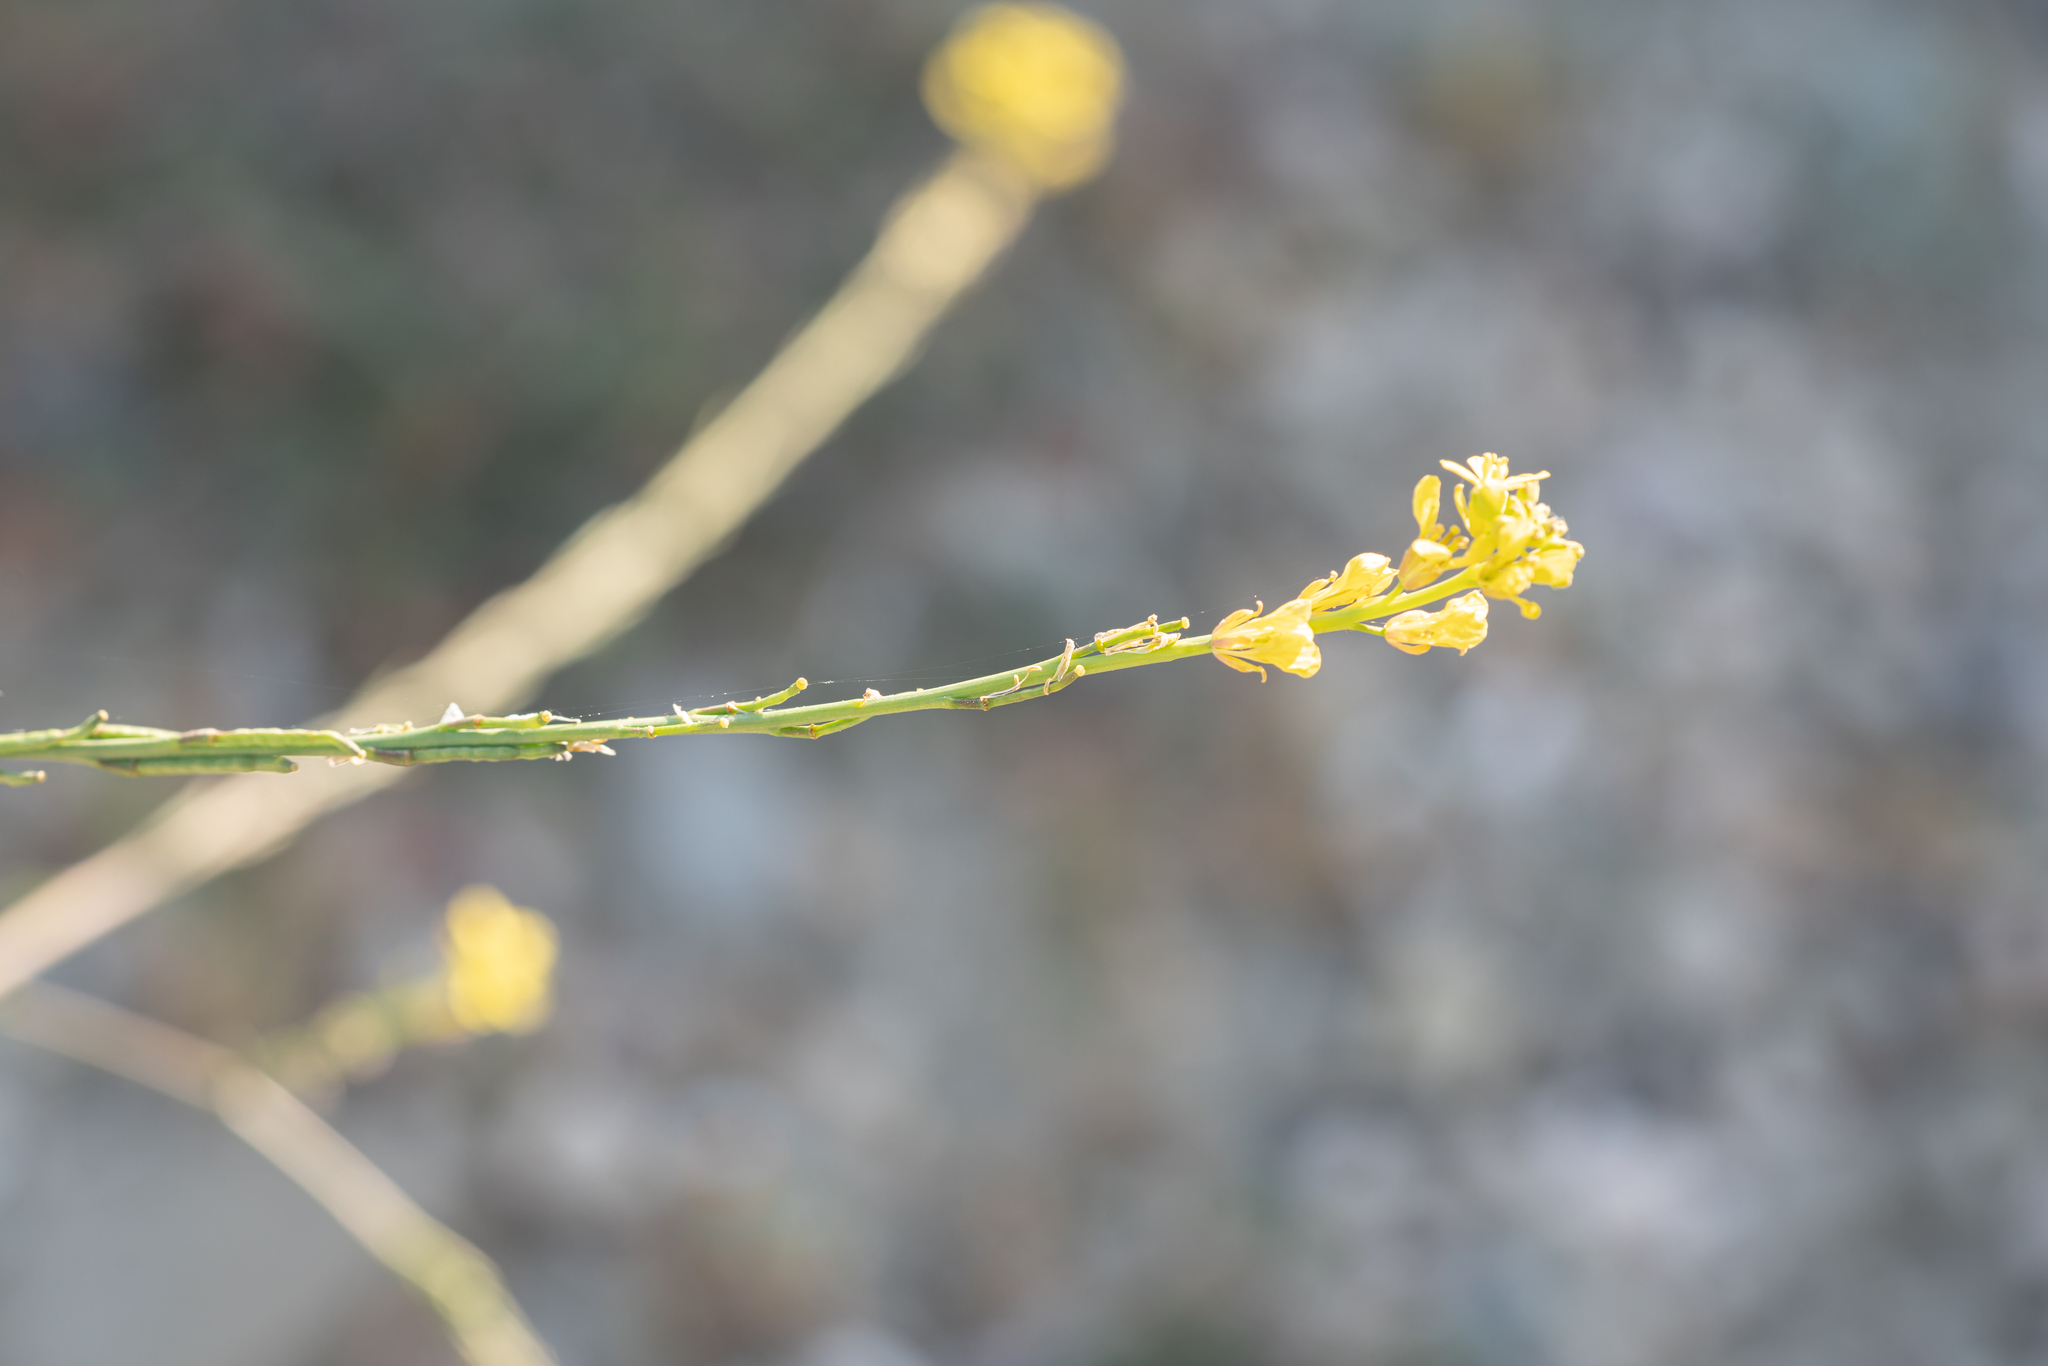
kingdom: Plantae
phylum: Tracheophyta
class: Magnoliopsida
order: Brassicales
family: Brassicaceae
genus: Hirschfeldia
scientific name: Hirschfeldia incana
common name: Hoary mustard
